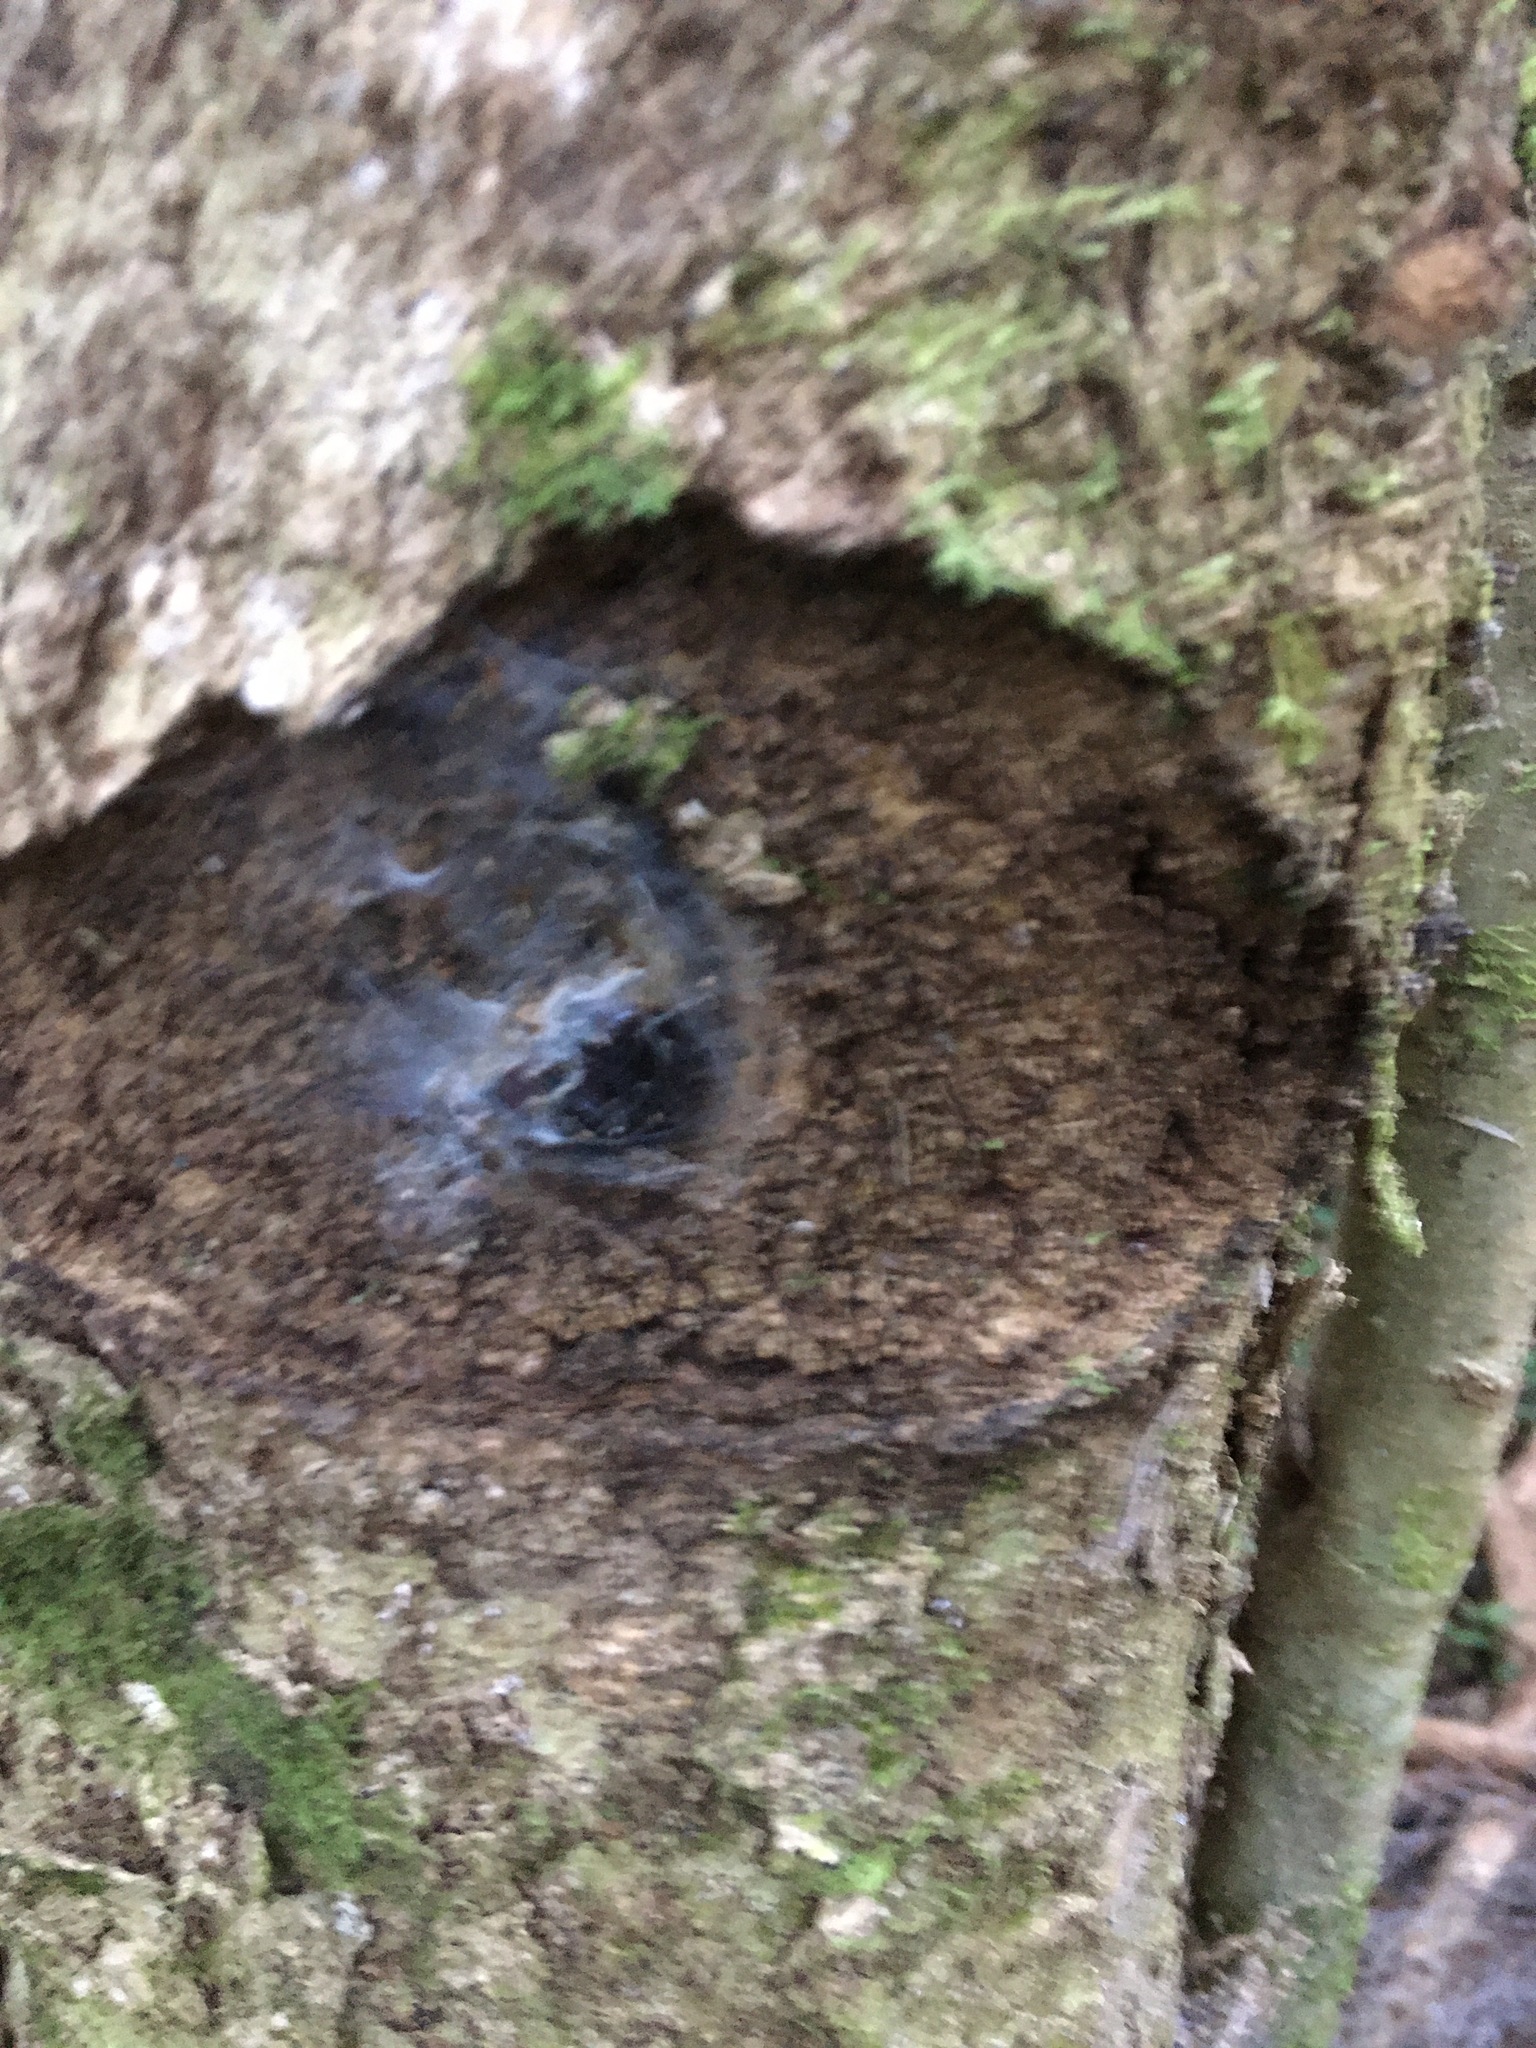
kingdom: Animalia
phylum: Arthropoda
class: Insecta
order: Lepidoptera
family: Hepialidae
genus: Aenetus
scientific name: Aenetus virescens
